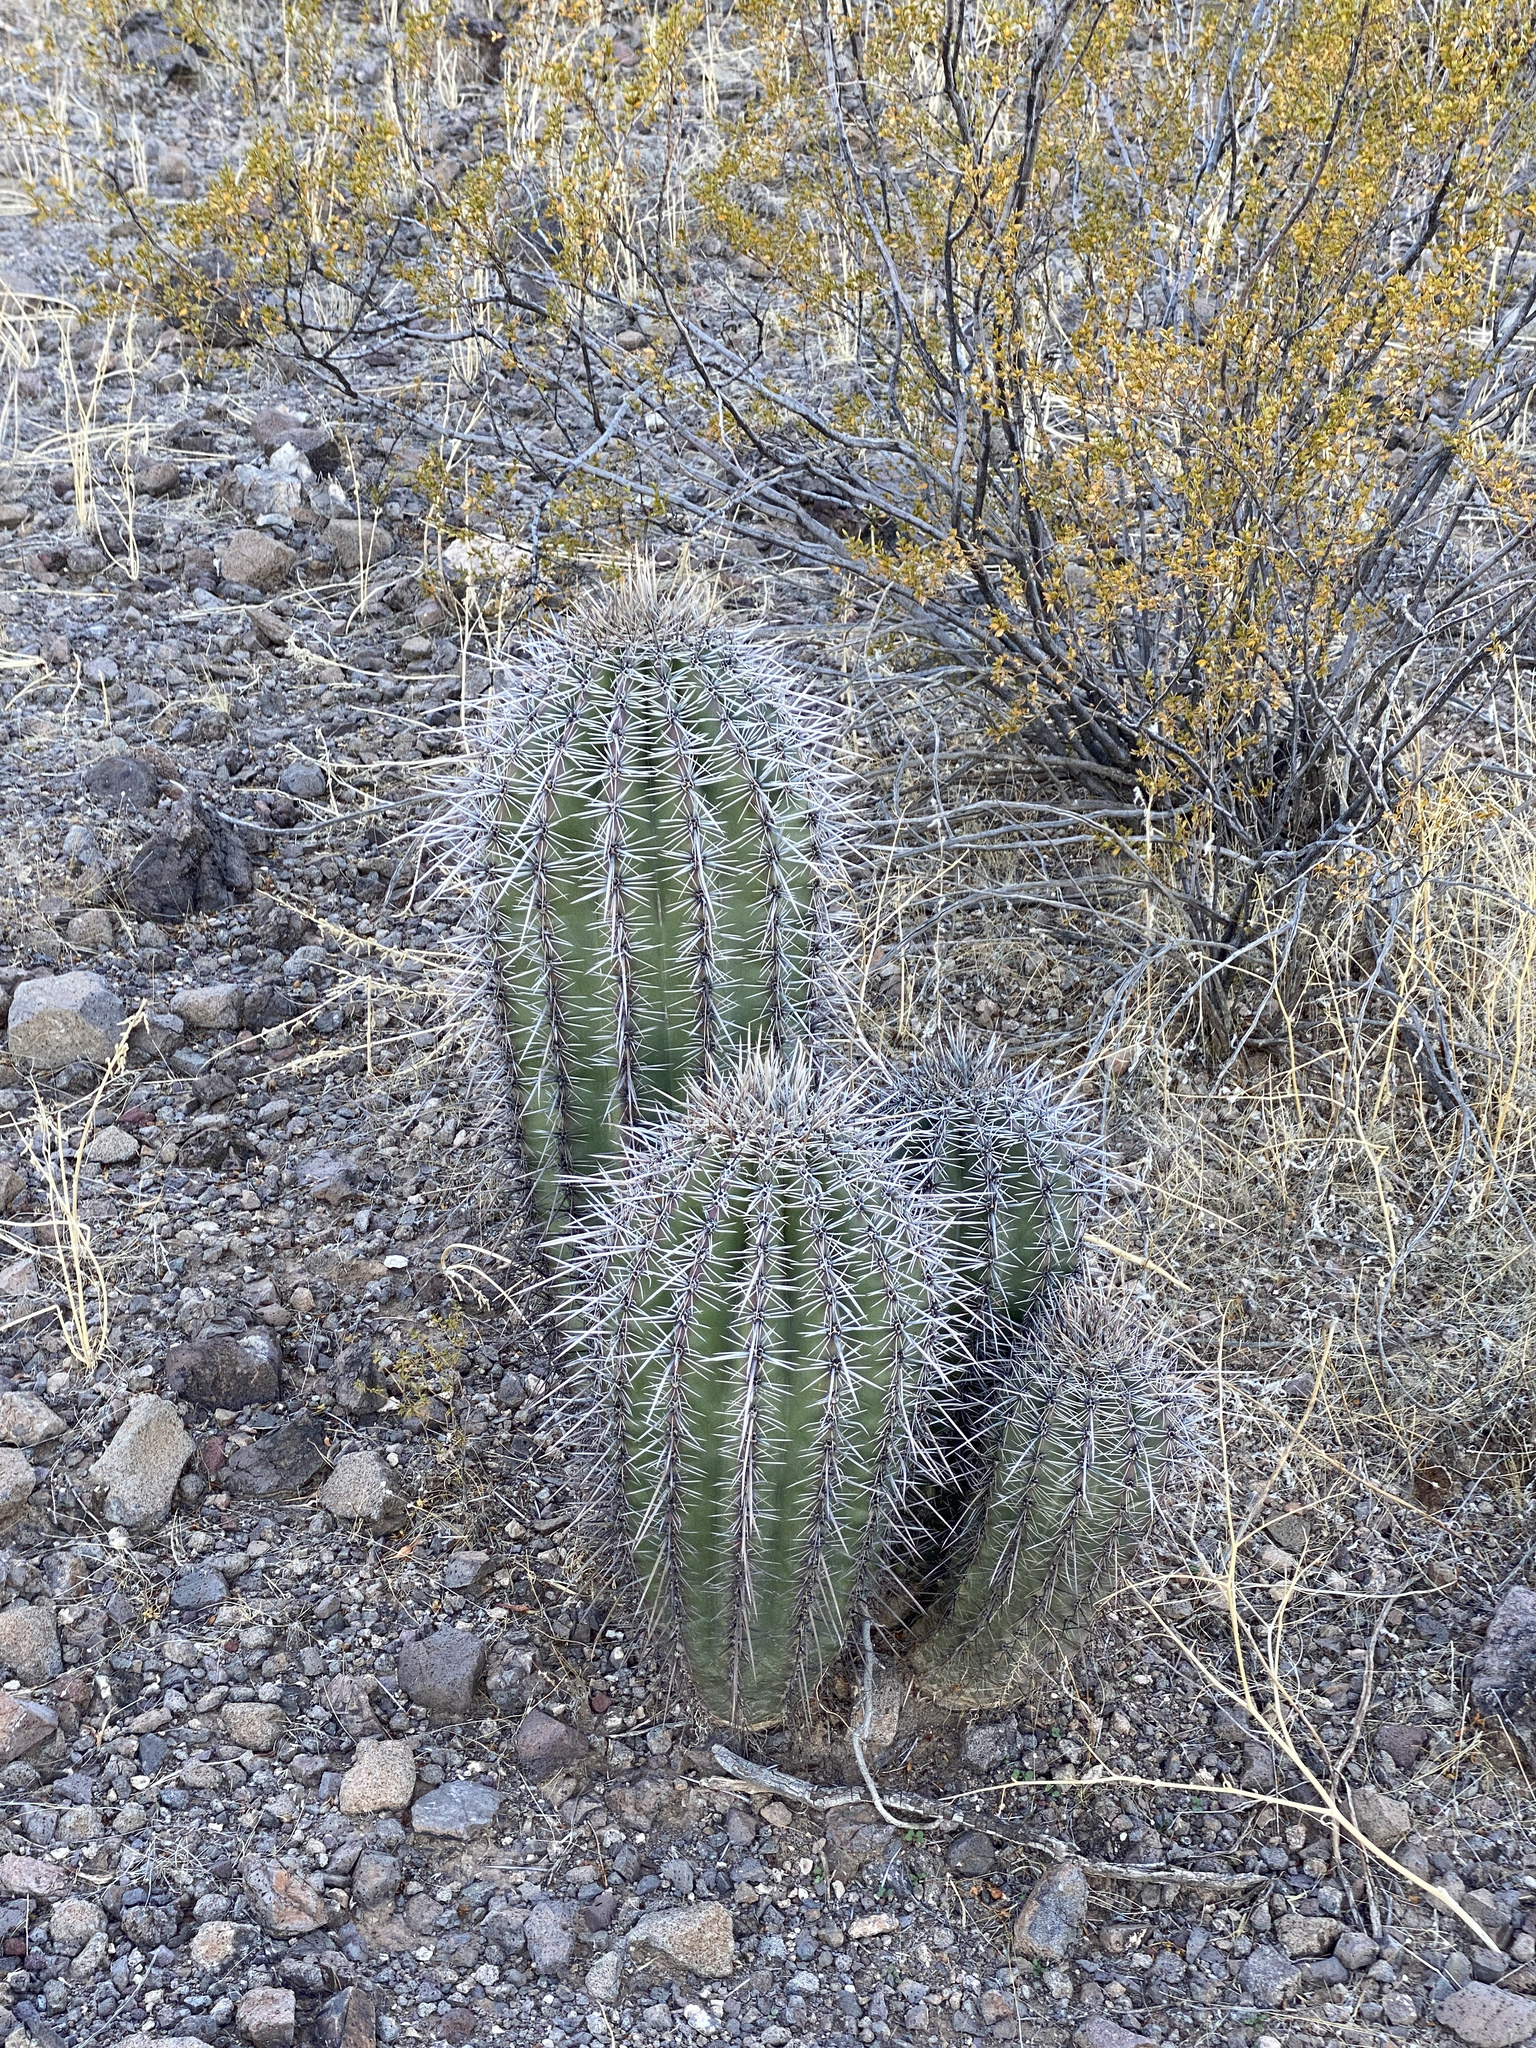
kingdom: Plantae
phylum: Tracheophyta
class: Magnoliopsida
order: Caryophyllales
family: Cactaceae
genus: Carnegiea
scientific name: Carnegiea gigantea
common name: Saguaro
